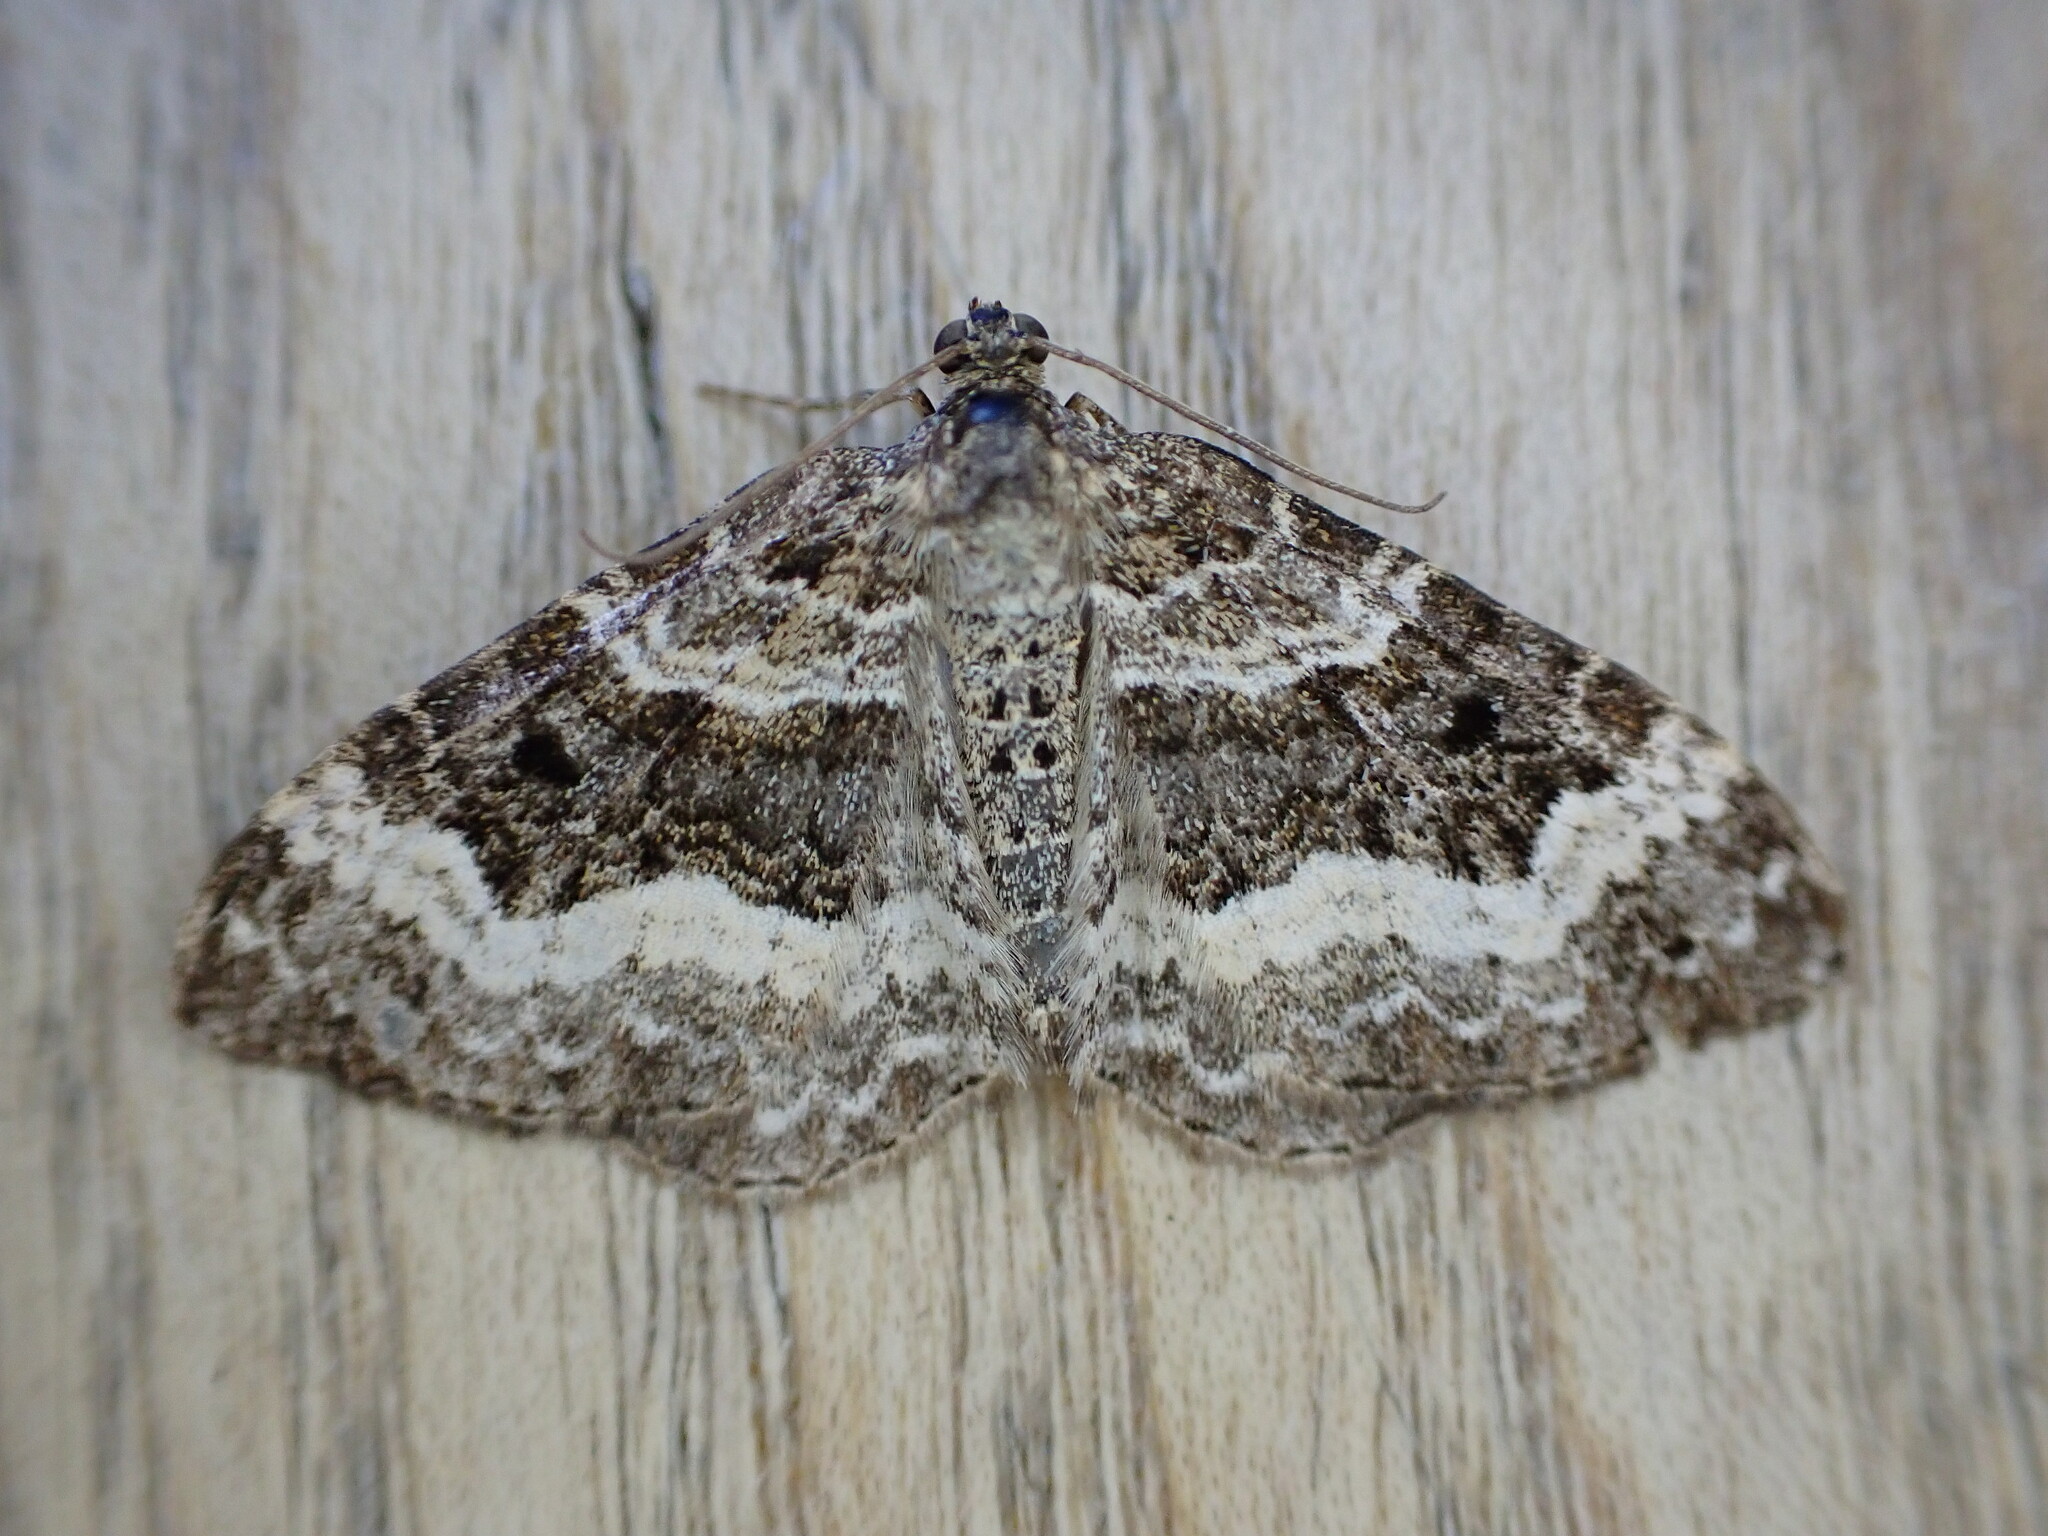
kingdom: Animalia
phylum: Arthropoda
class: Insecta
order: Lepidoptera
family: Geometridae
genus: Epirrhoe
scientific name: Epirrhoe alternata
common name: Common carpet
